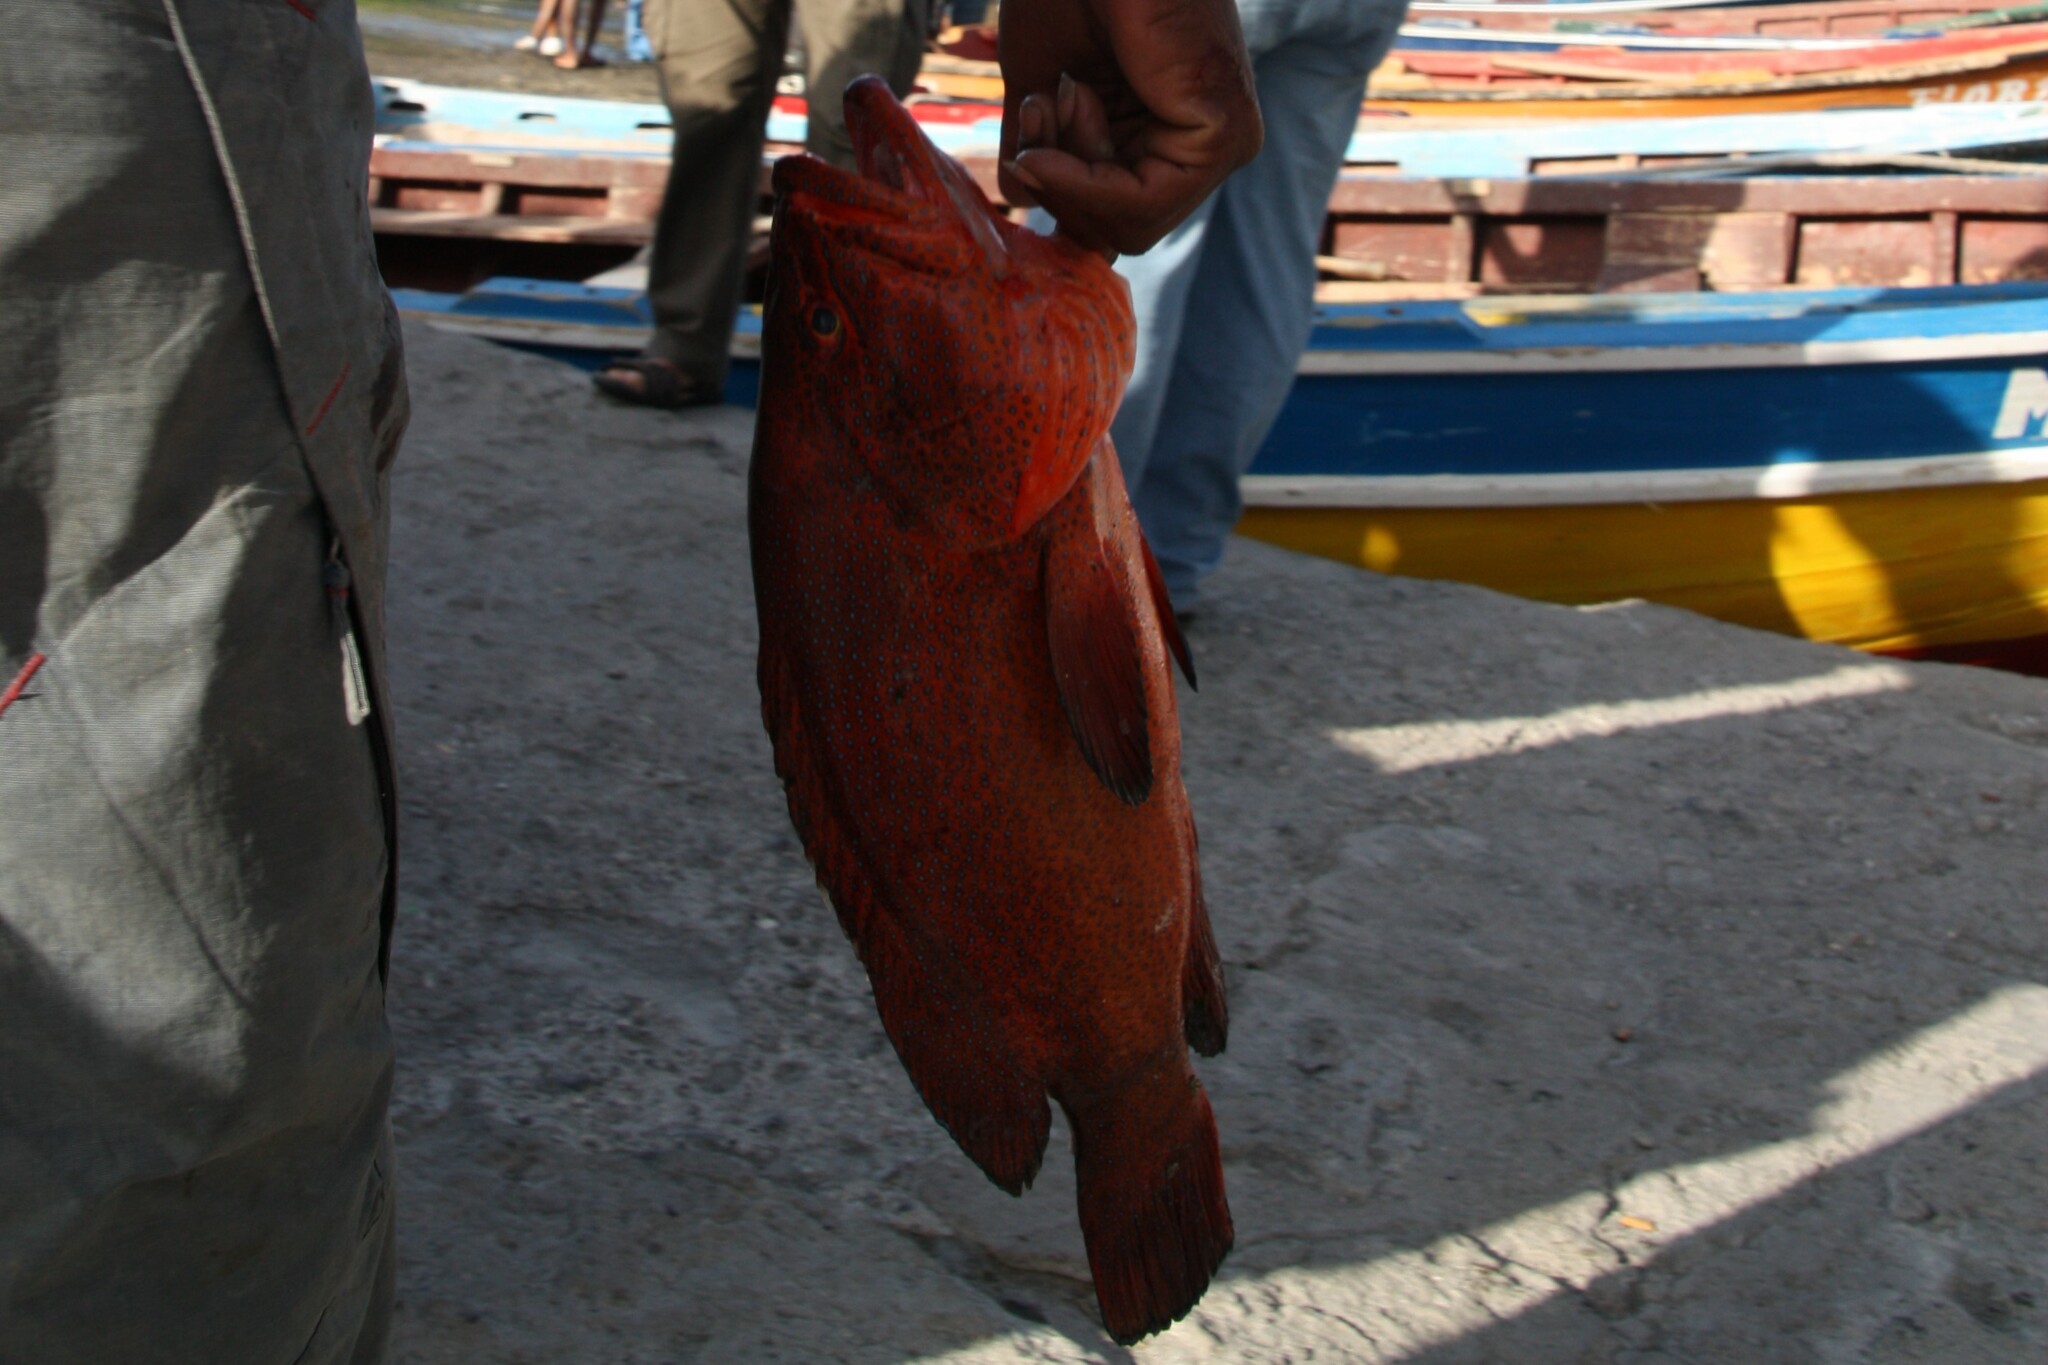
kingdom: Animalia
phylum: Chordata
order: Perciformes
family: Serranidae
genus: Cephalopholis
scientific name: Cephalopholis taeniops
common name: African hind
